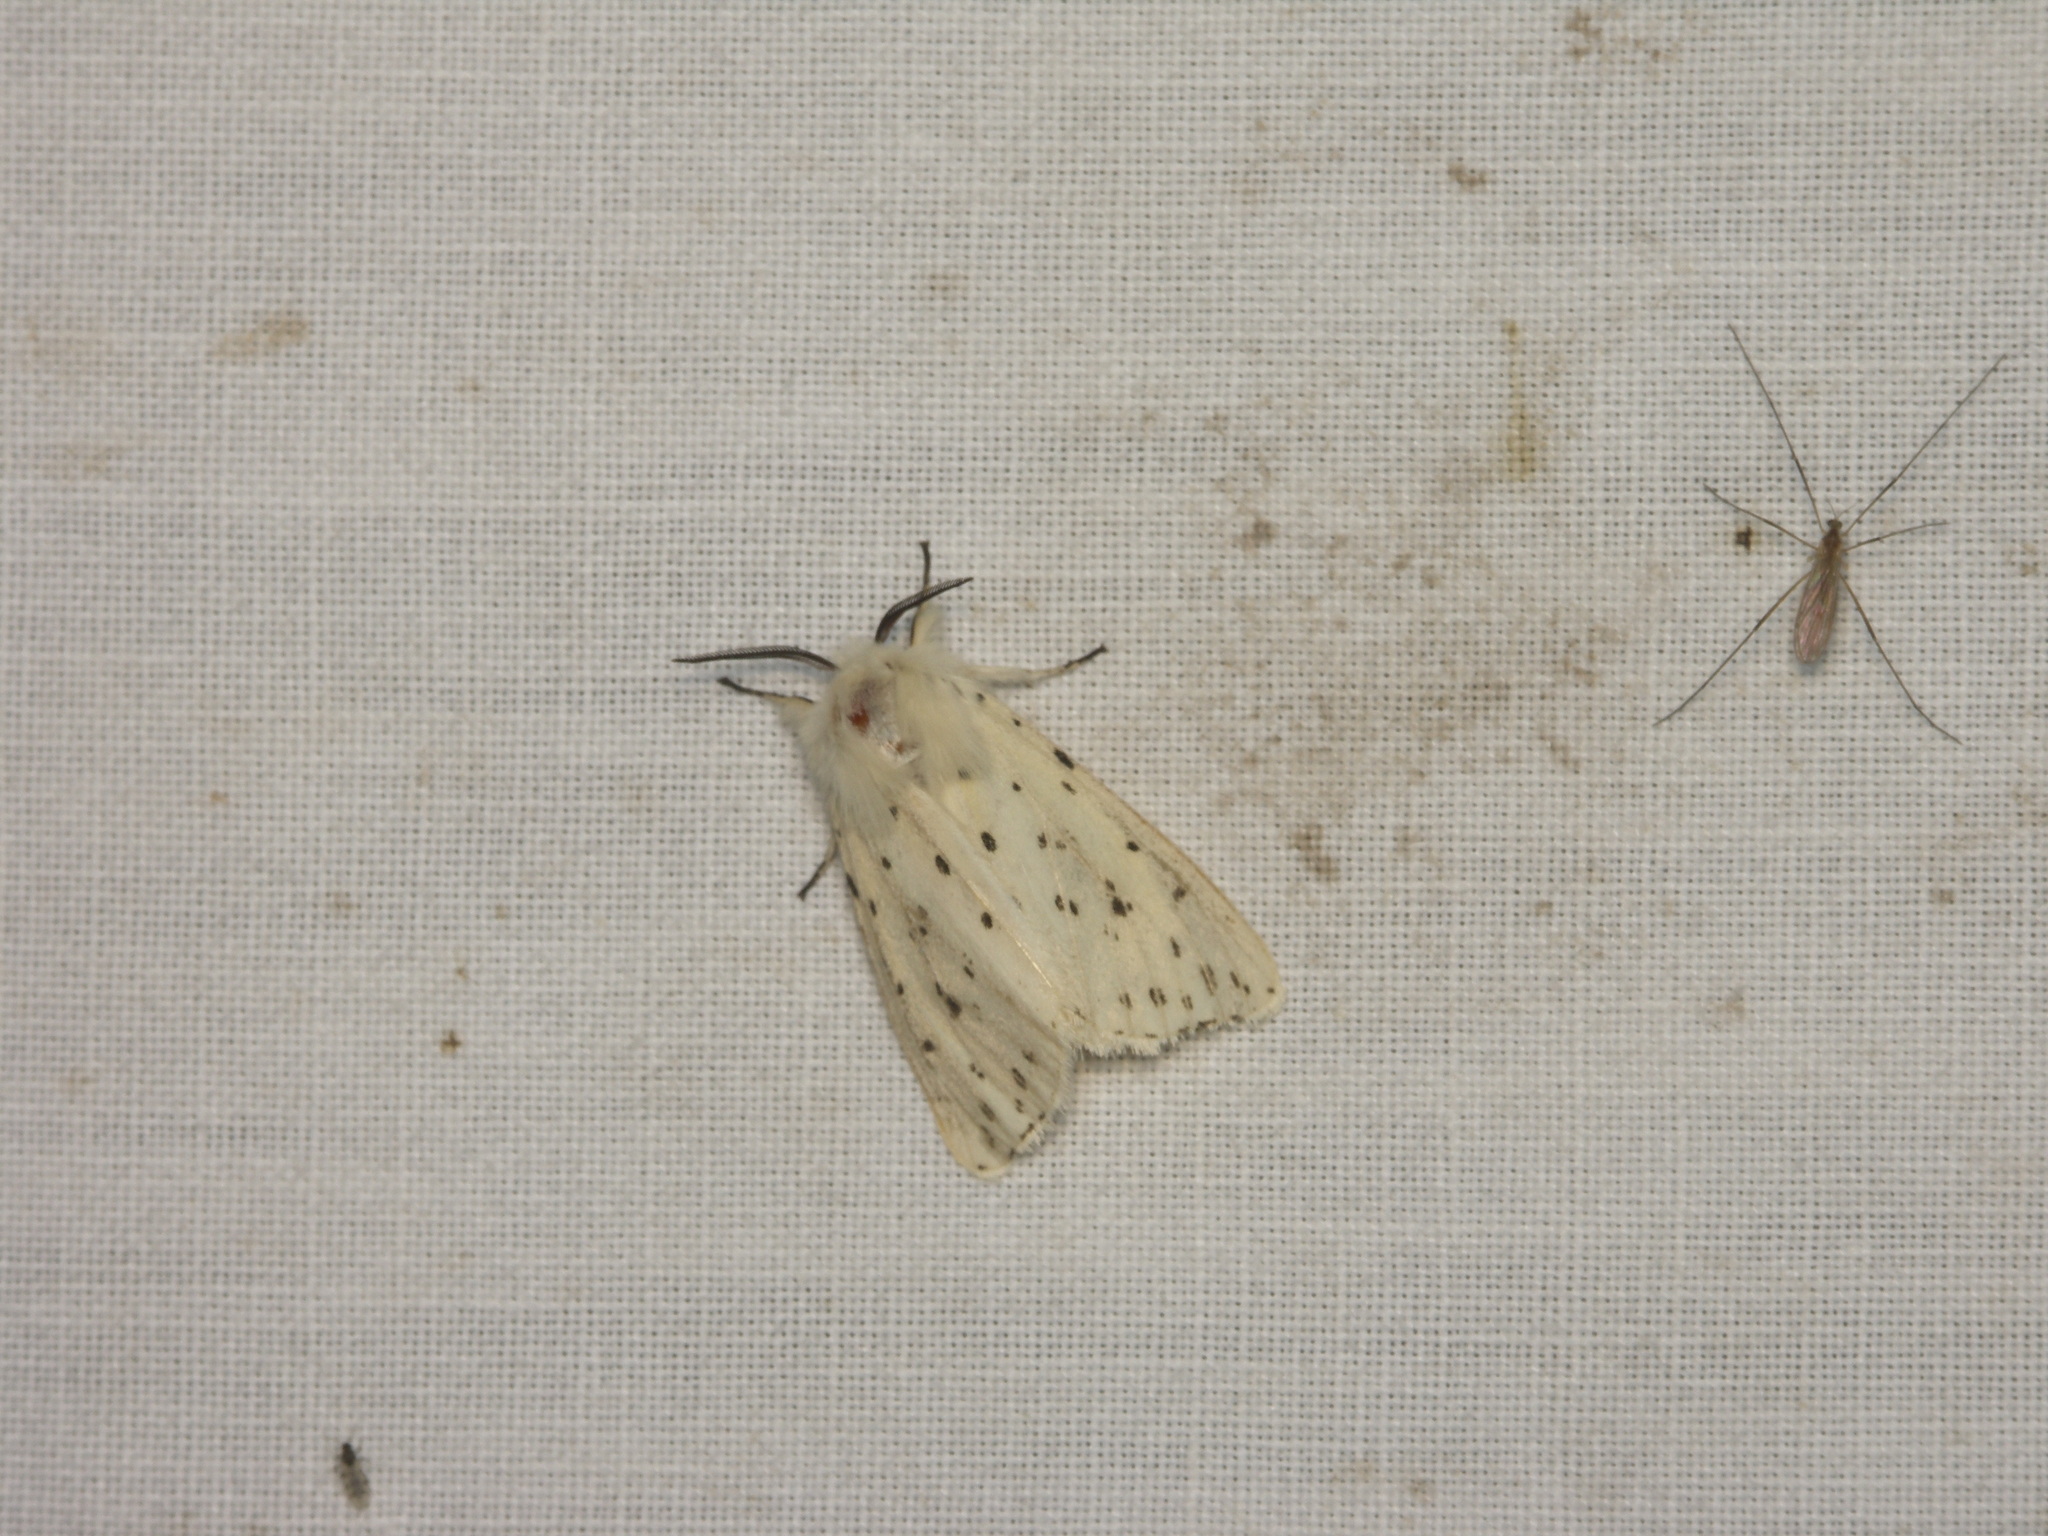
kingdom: Animalia
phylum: Arthropoda
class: Insecta
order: Lepidoptera
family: Erebidae
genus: Spilosoma
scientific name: Spilosoma lubricipeda
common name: White ermine
